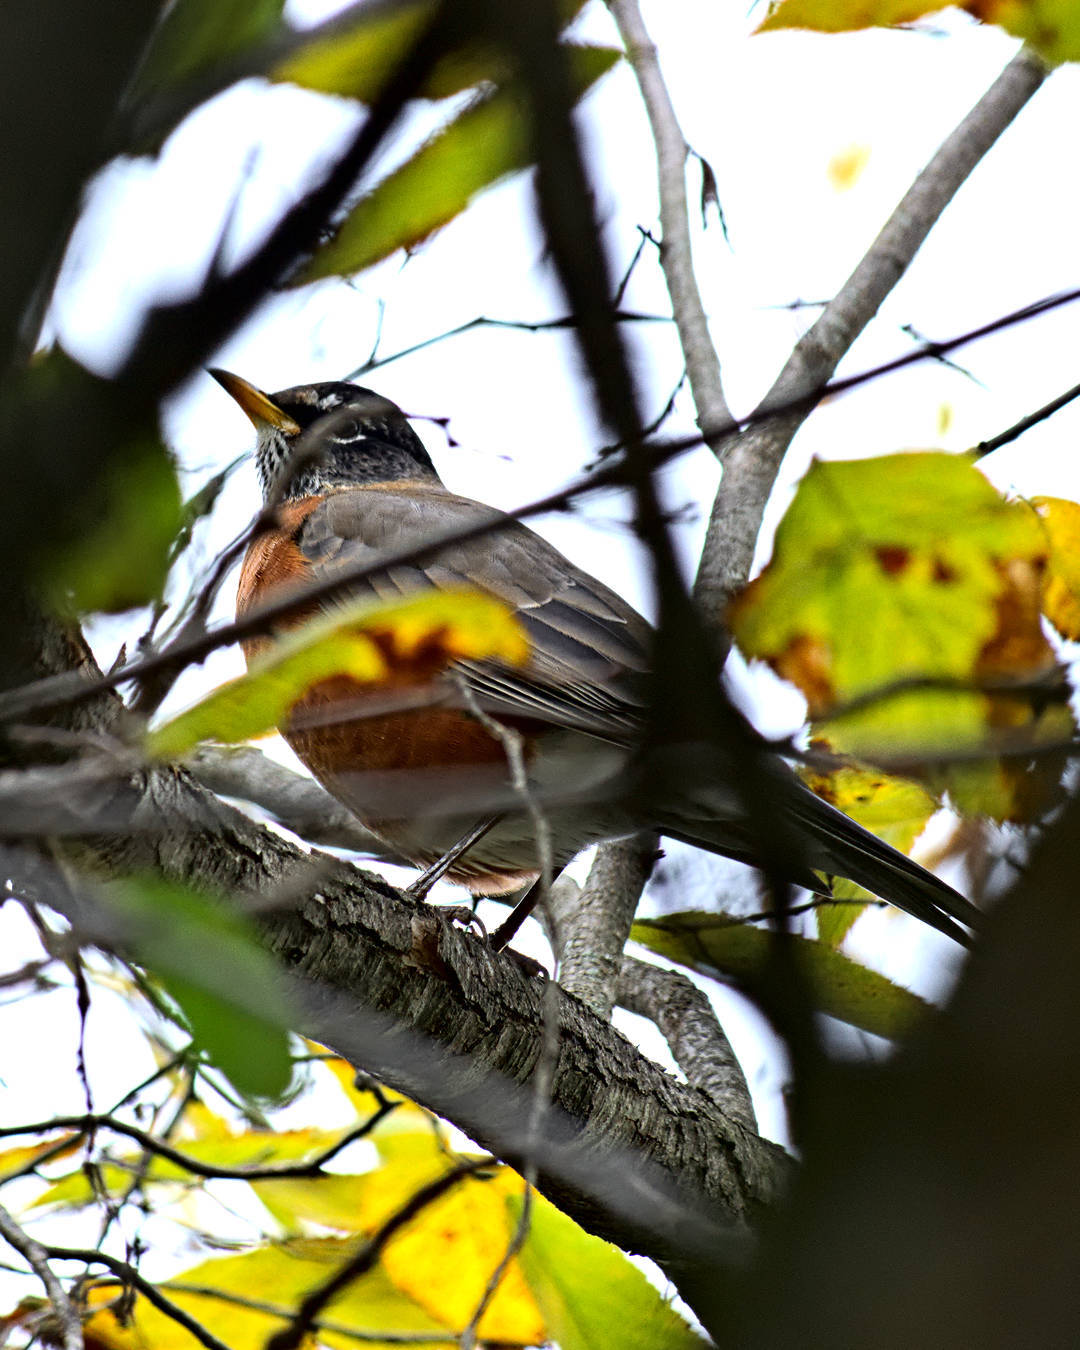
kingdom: Animalia
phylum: Chordata
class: Aves
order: Passeriformes
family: Turdidae
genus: Turdus
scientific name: Turdus migratorius
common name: American robin
